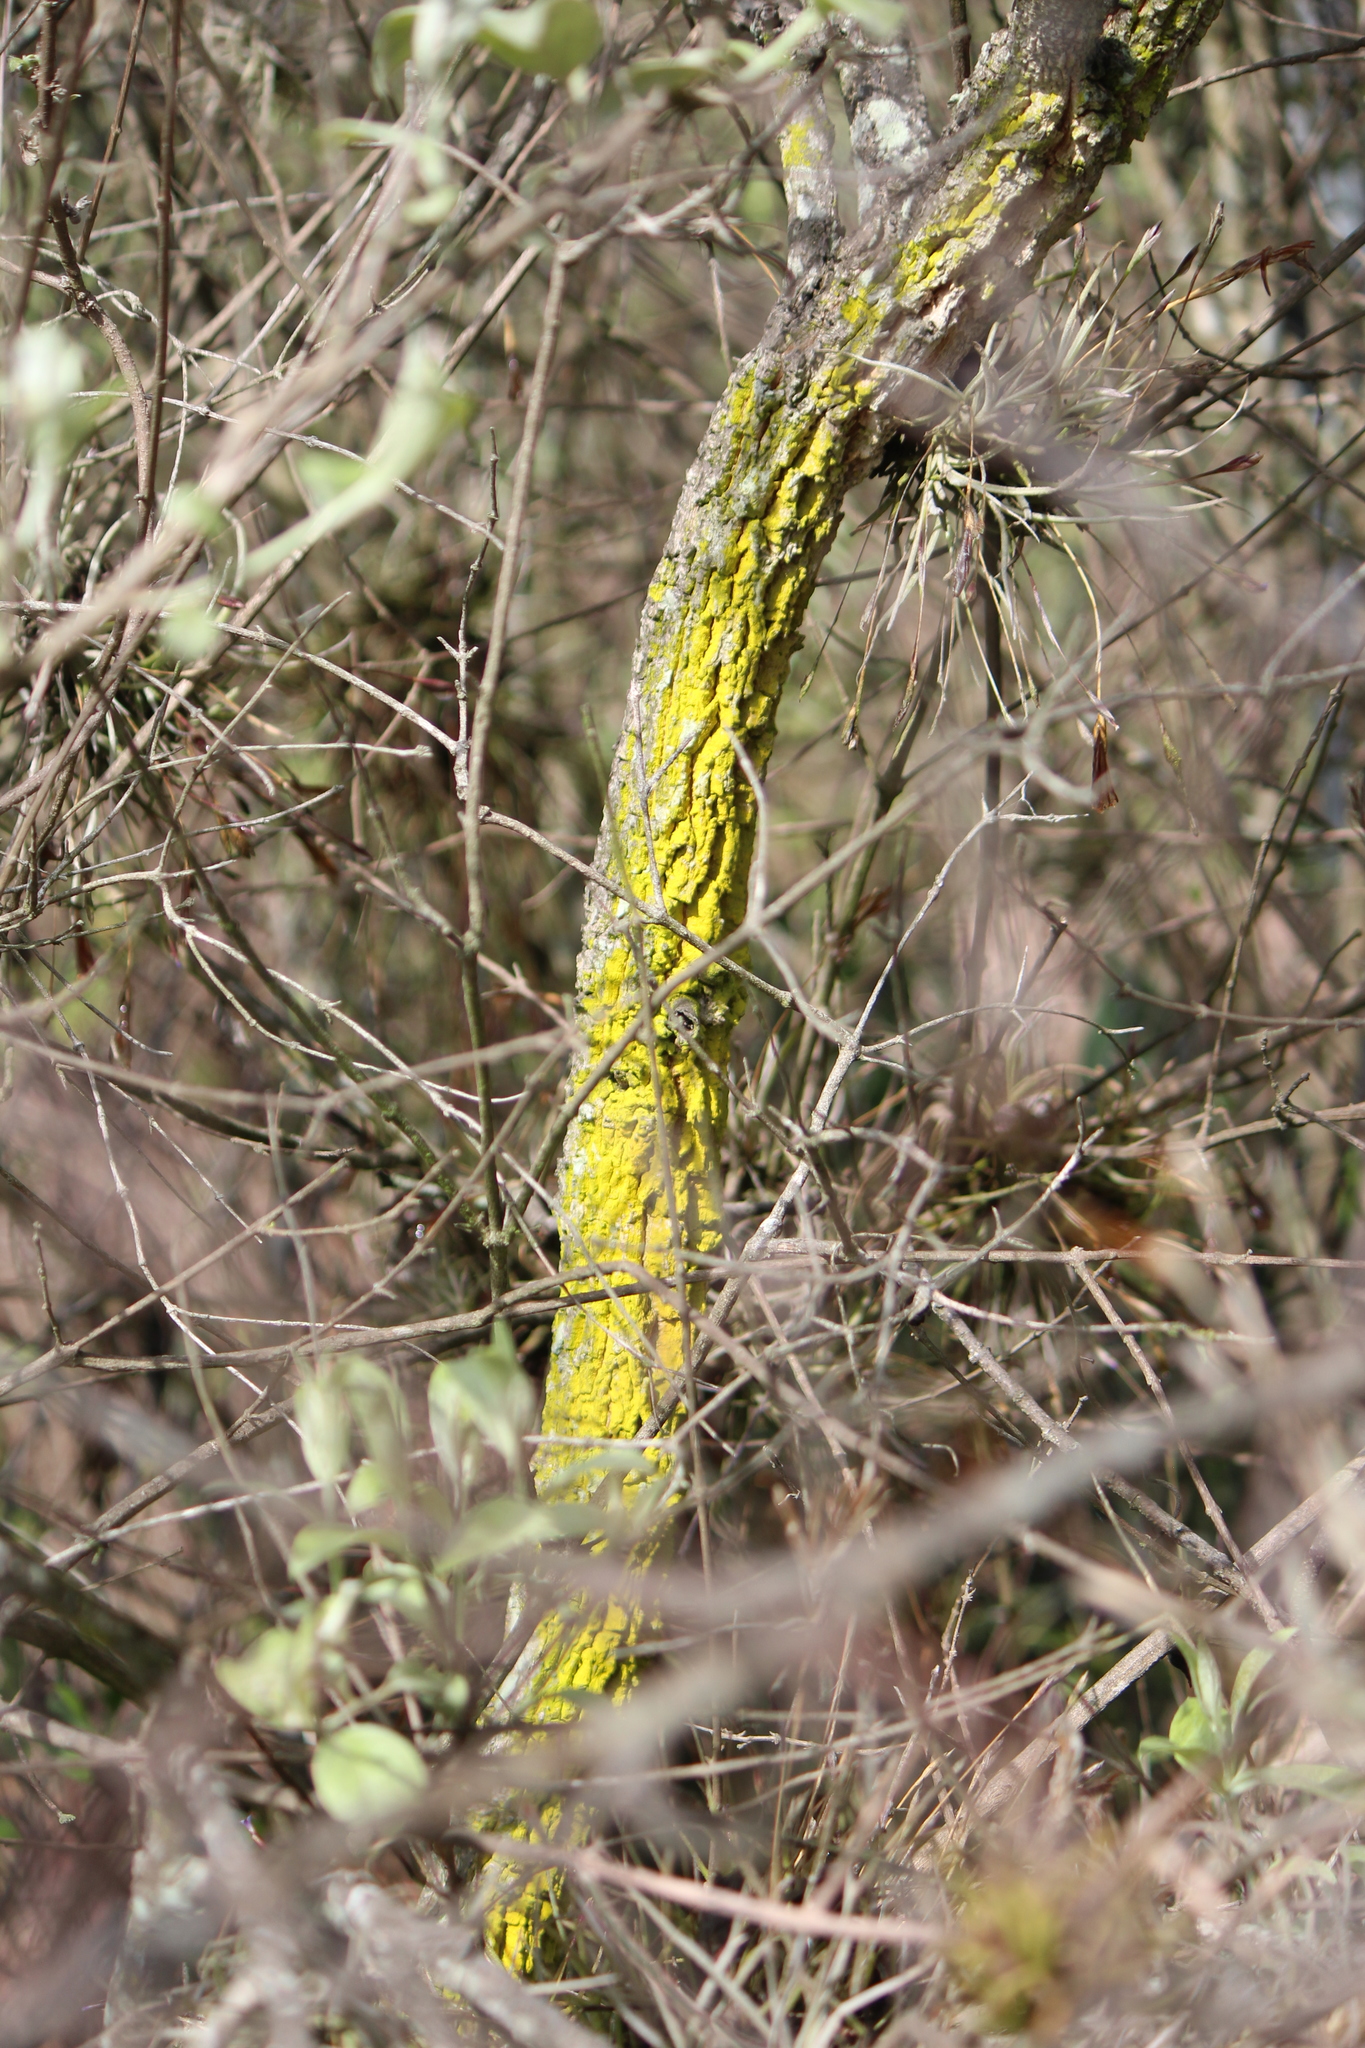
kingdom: Fungi
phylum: Ascomycota
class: Arthoniomycetes
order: Arthoniales
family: Chrysotrichaceae
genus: Chrysothrix
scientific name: Chrysothrix xanthina
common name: Common gold-dust
